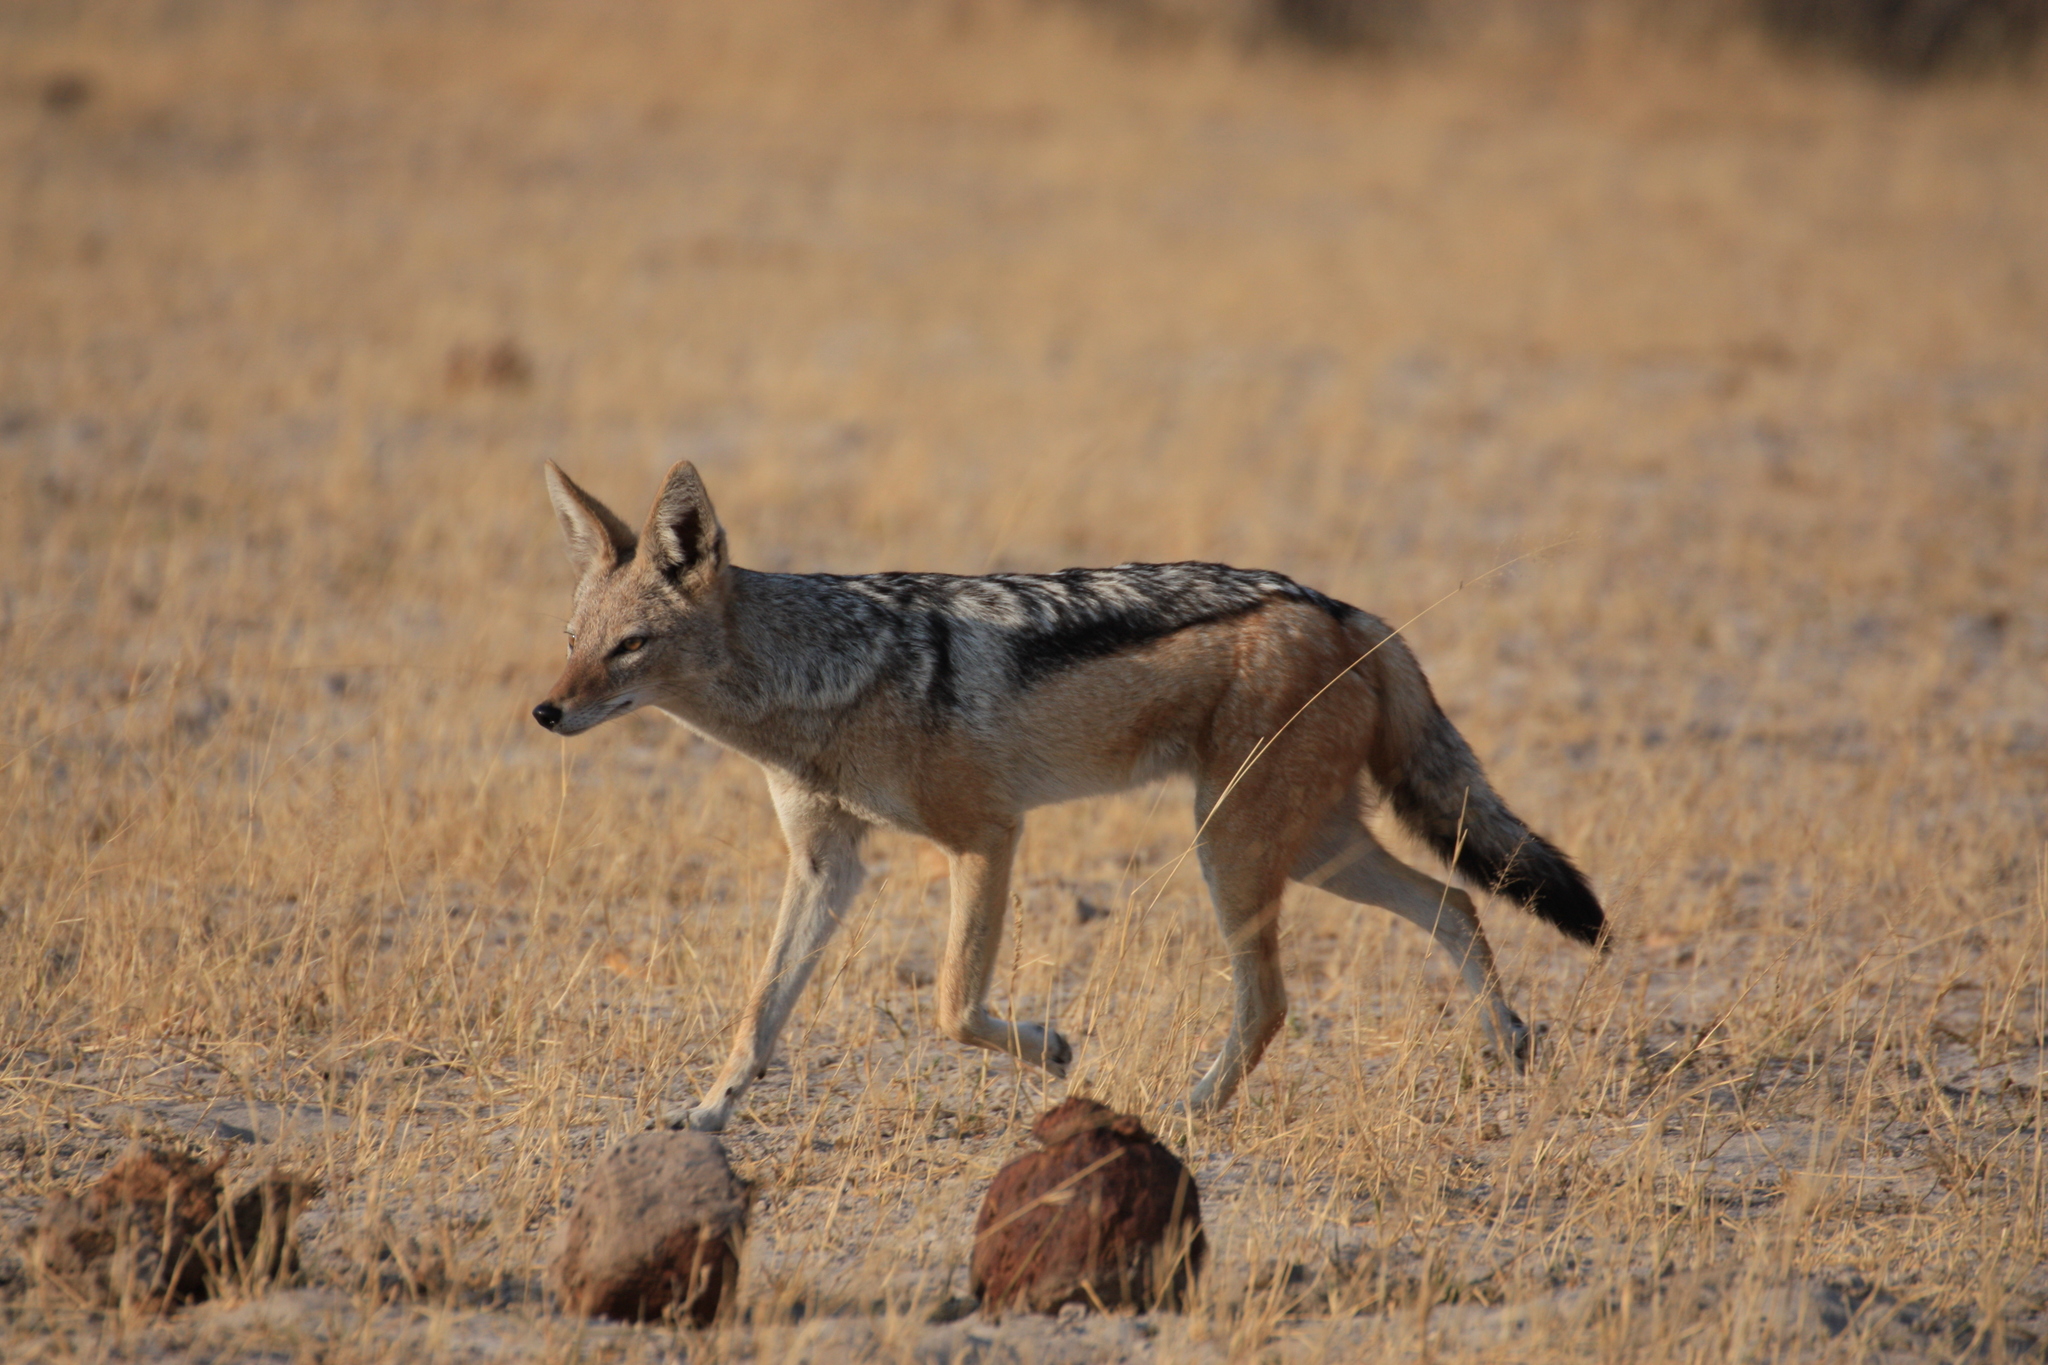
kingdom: Animalia
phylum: Chordata
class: Mammalia
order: Carnivora
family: Canidae
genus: Lupulella
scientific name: Lupulella
